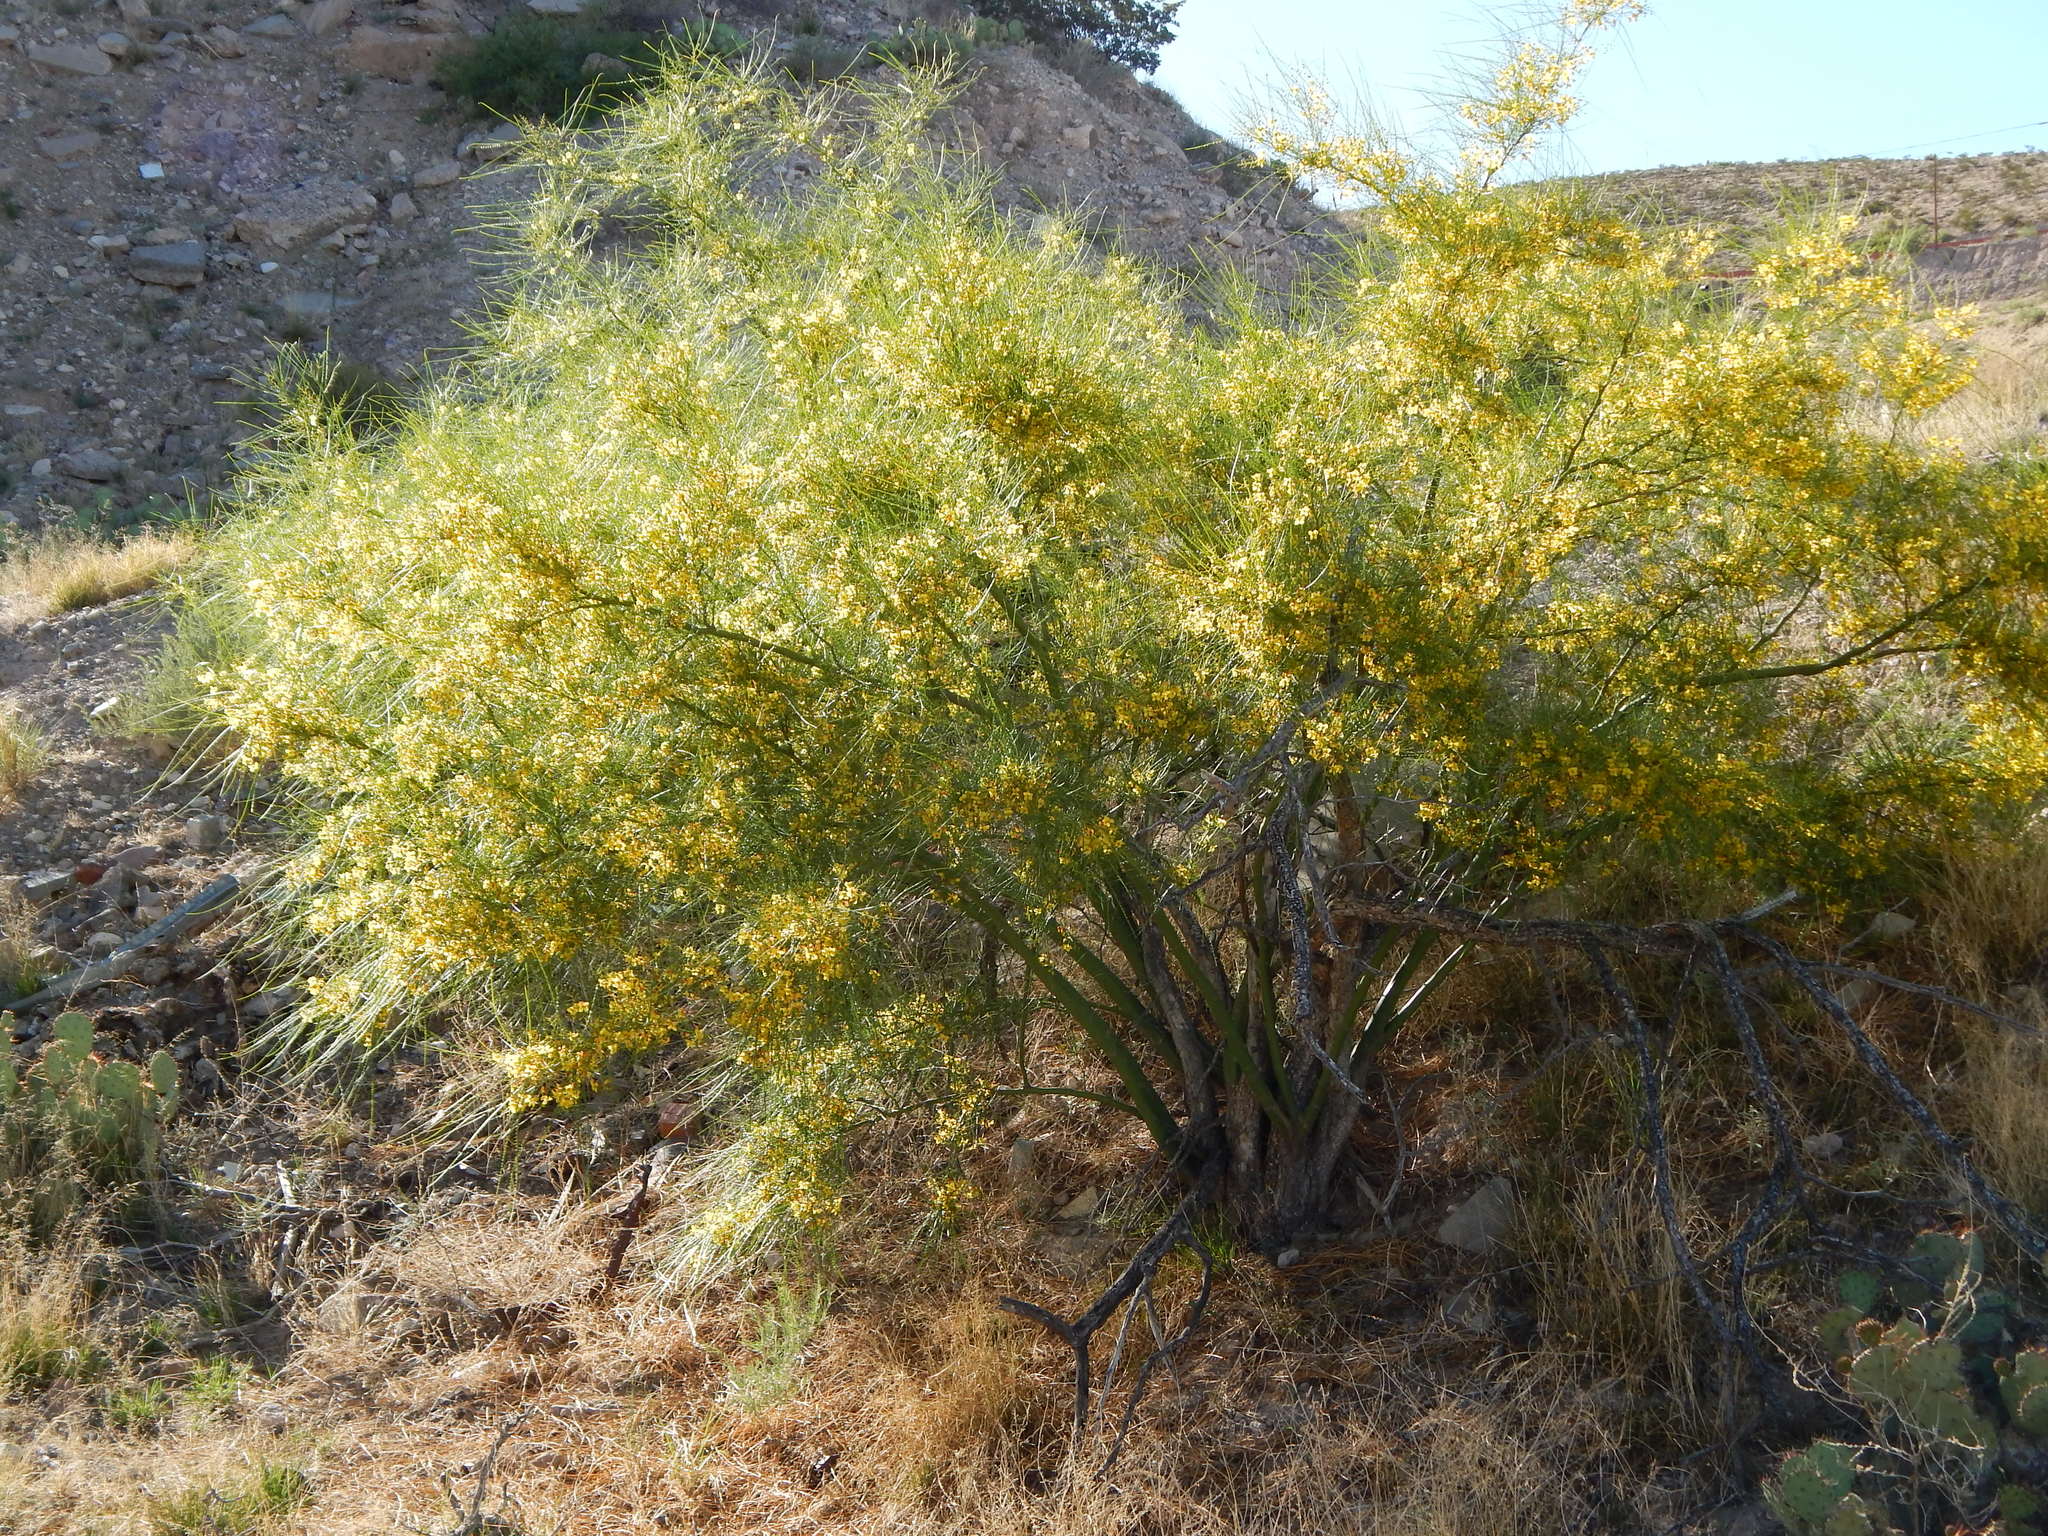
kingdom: Plantae
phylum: Tracheophyta
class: Magnoliopsida
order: Fabales
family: Fabaceae
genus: Parkinsonia
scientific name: Parkinsonia aculeata
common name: Jerusalem thorn
